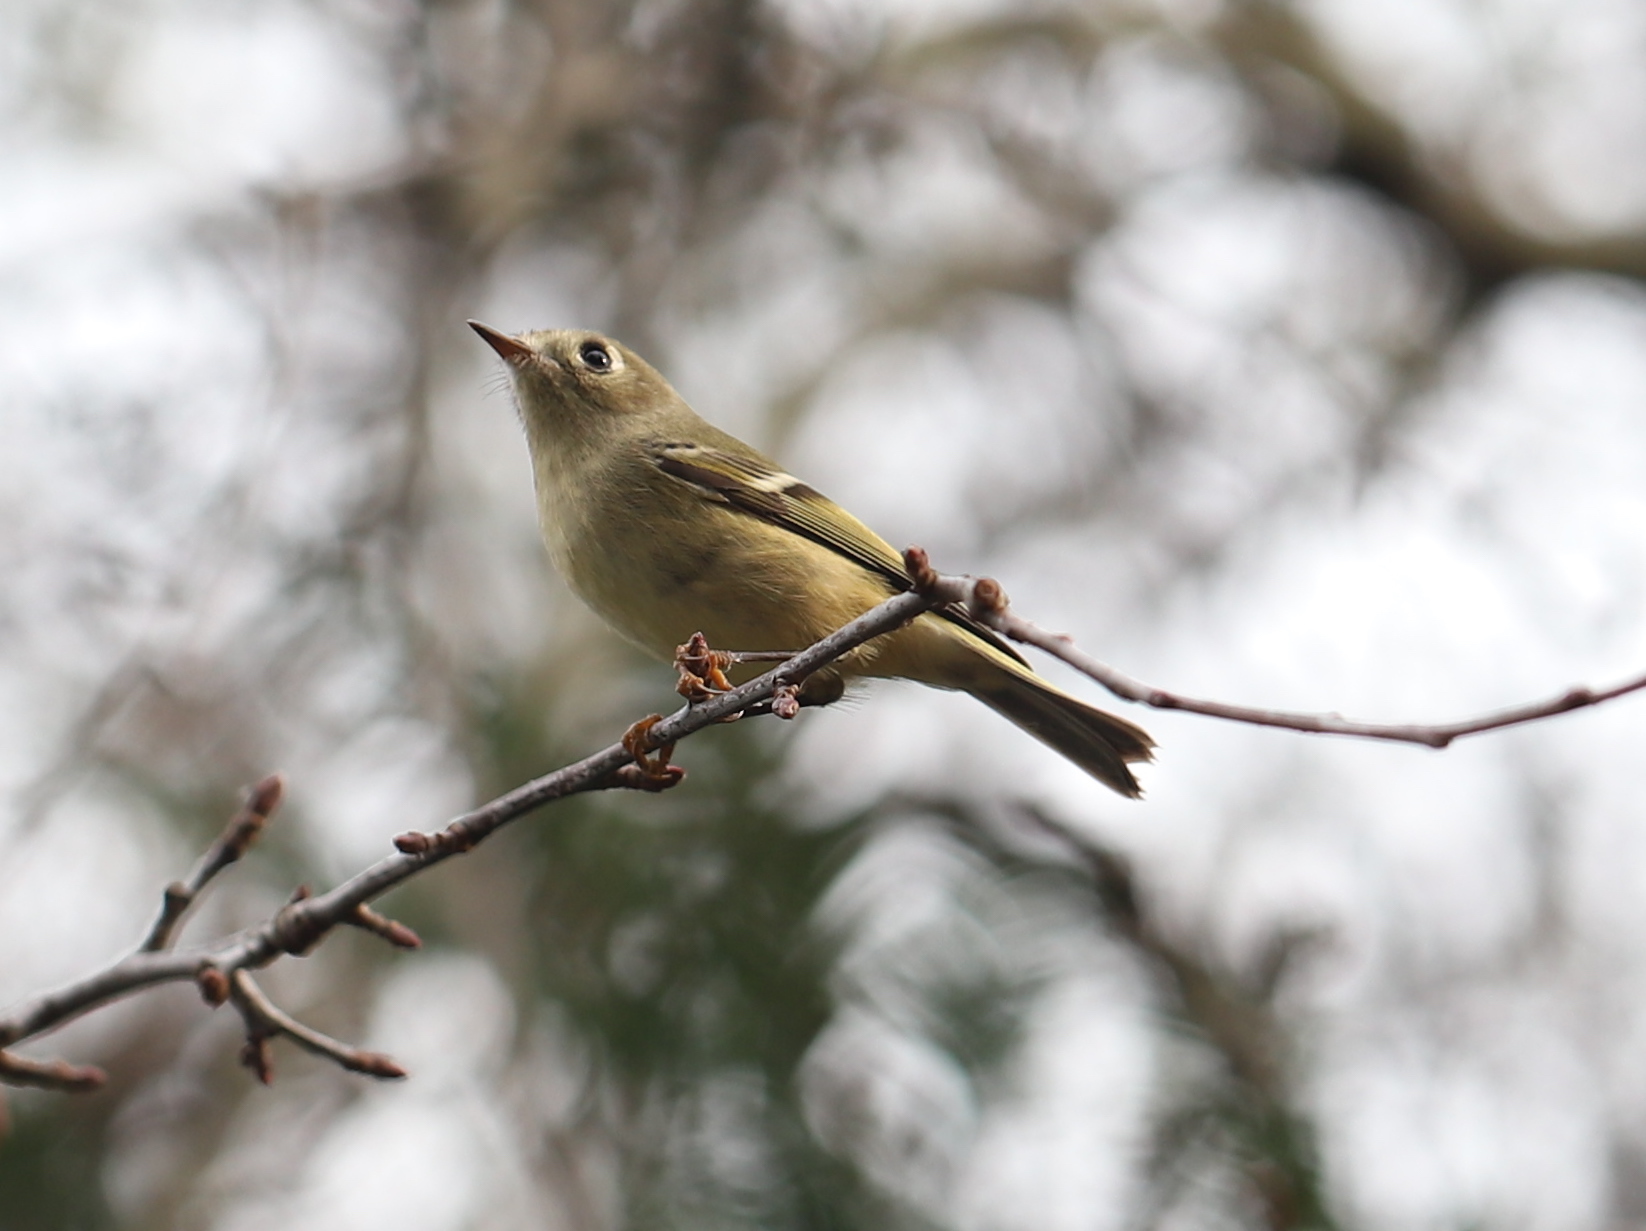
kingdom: Animalia
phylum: Chordata
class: Aves
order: Passeriformes
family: Regulidae
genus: Regulus
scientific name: Regulus calendula
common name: Ruby-crowned kinglet
